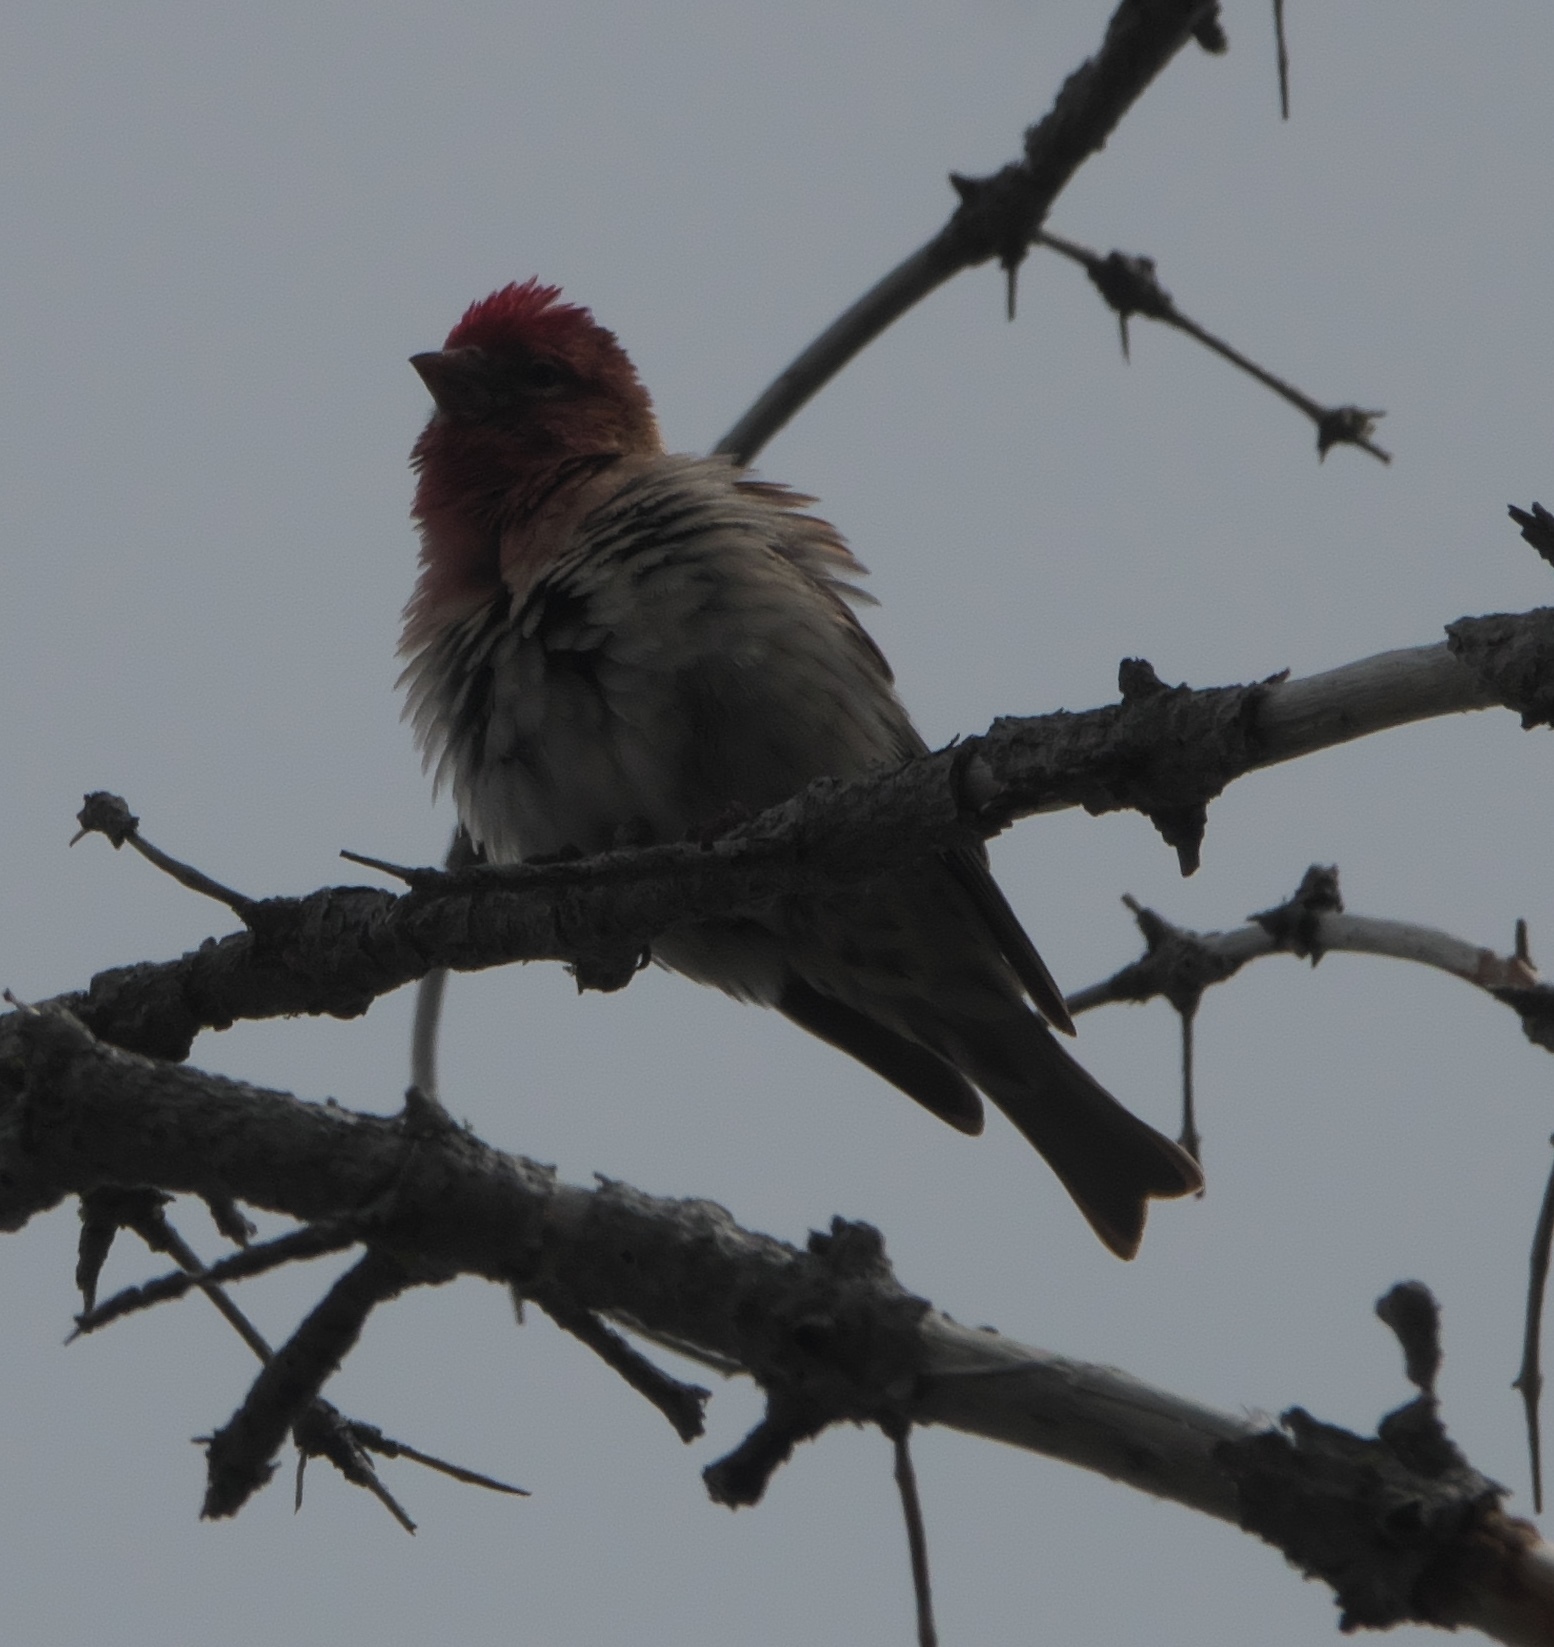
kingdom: Animalia
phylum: Chordata
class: Aves
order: Passeriformes
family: Fringillidae
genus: Haemorhous
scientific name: Haemorhous cassinii
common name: Cassin's finch
